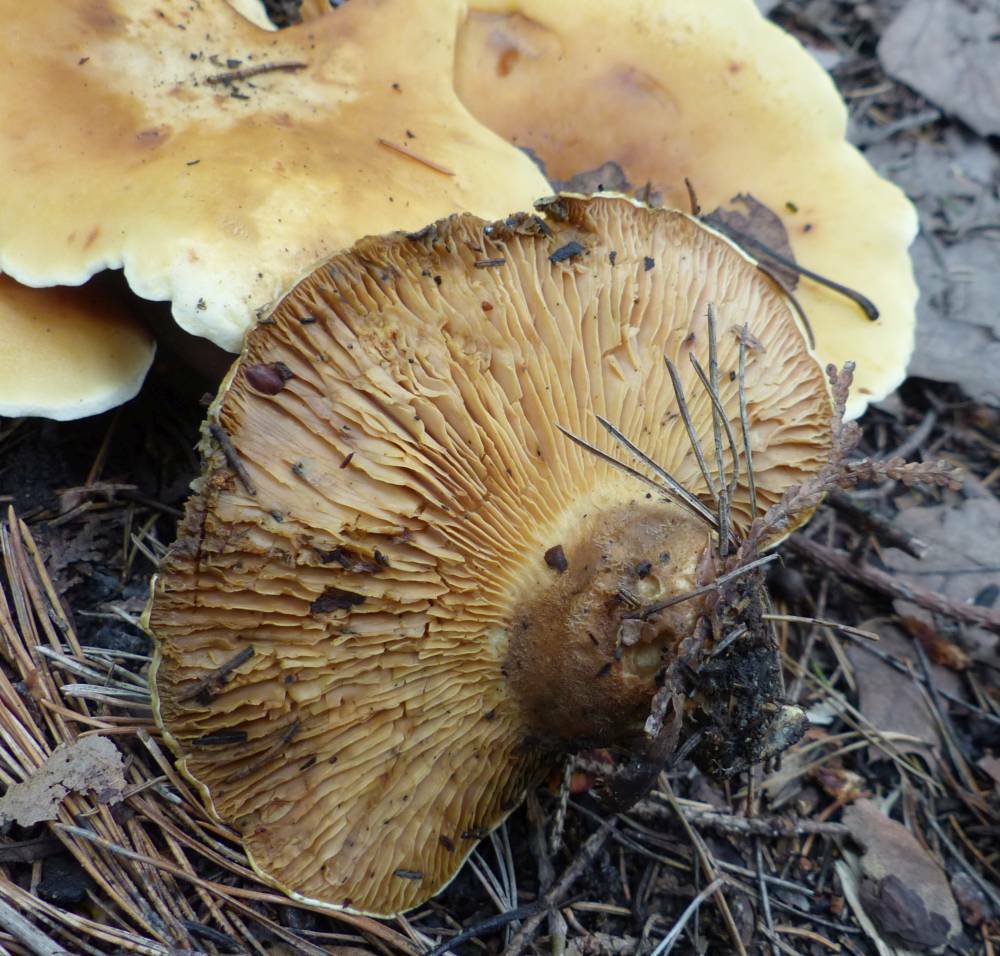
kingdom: Fungi
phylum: Basidiomycota
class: Agaricomycetes
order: Boletales
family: Tapinellaceae
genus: Tapinella
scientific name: Tapinella atrotomentosa
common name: Velvet rollrim
